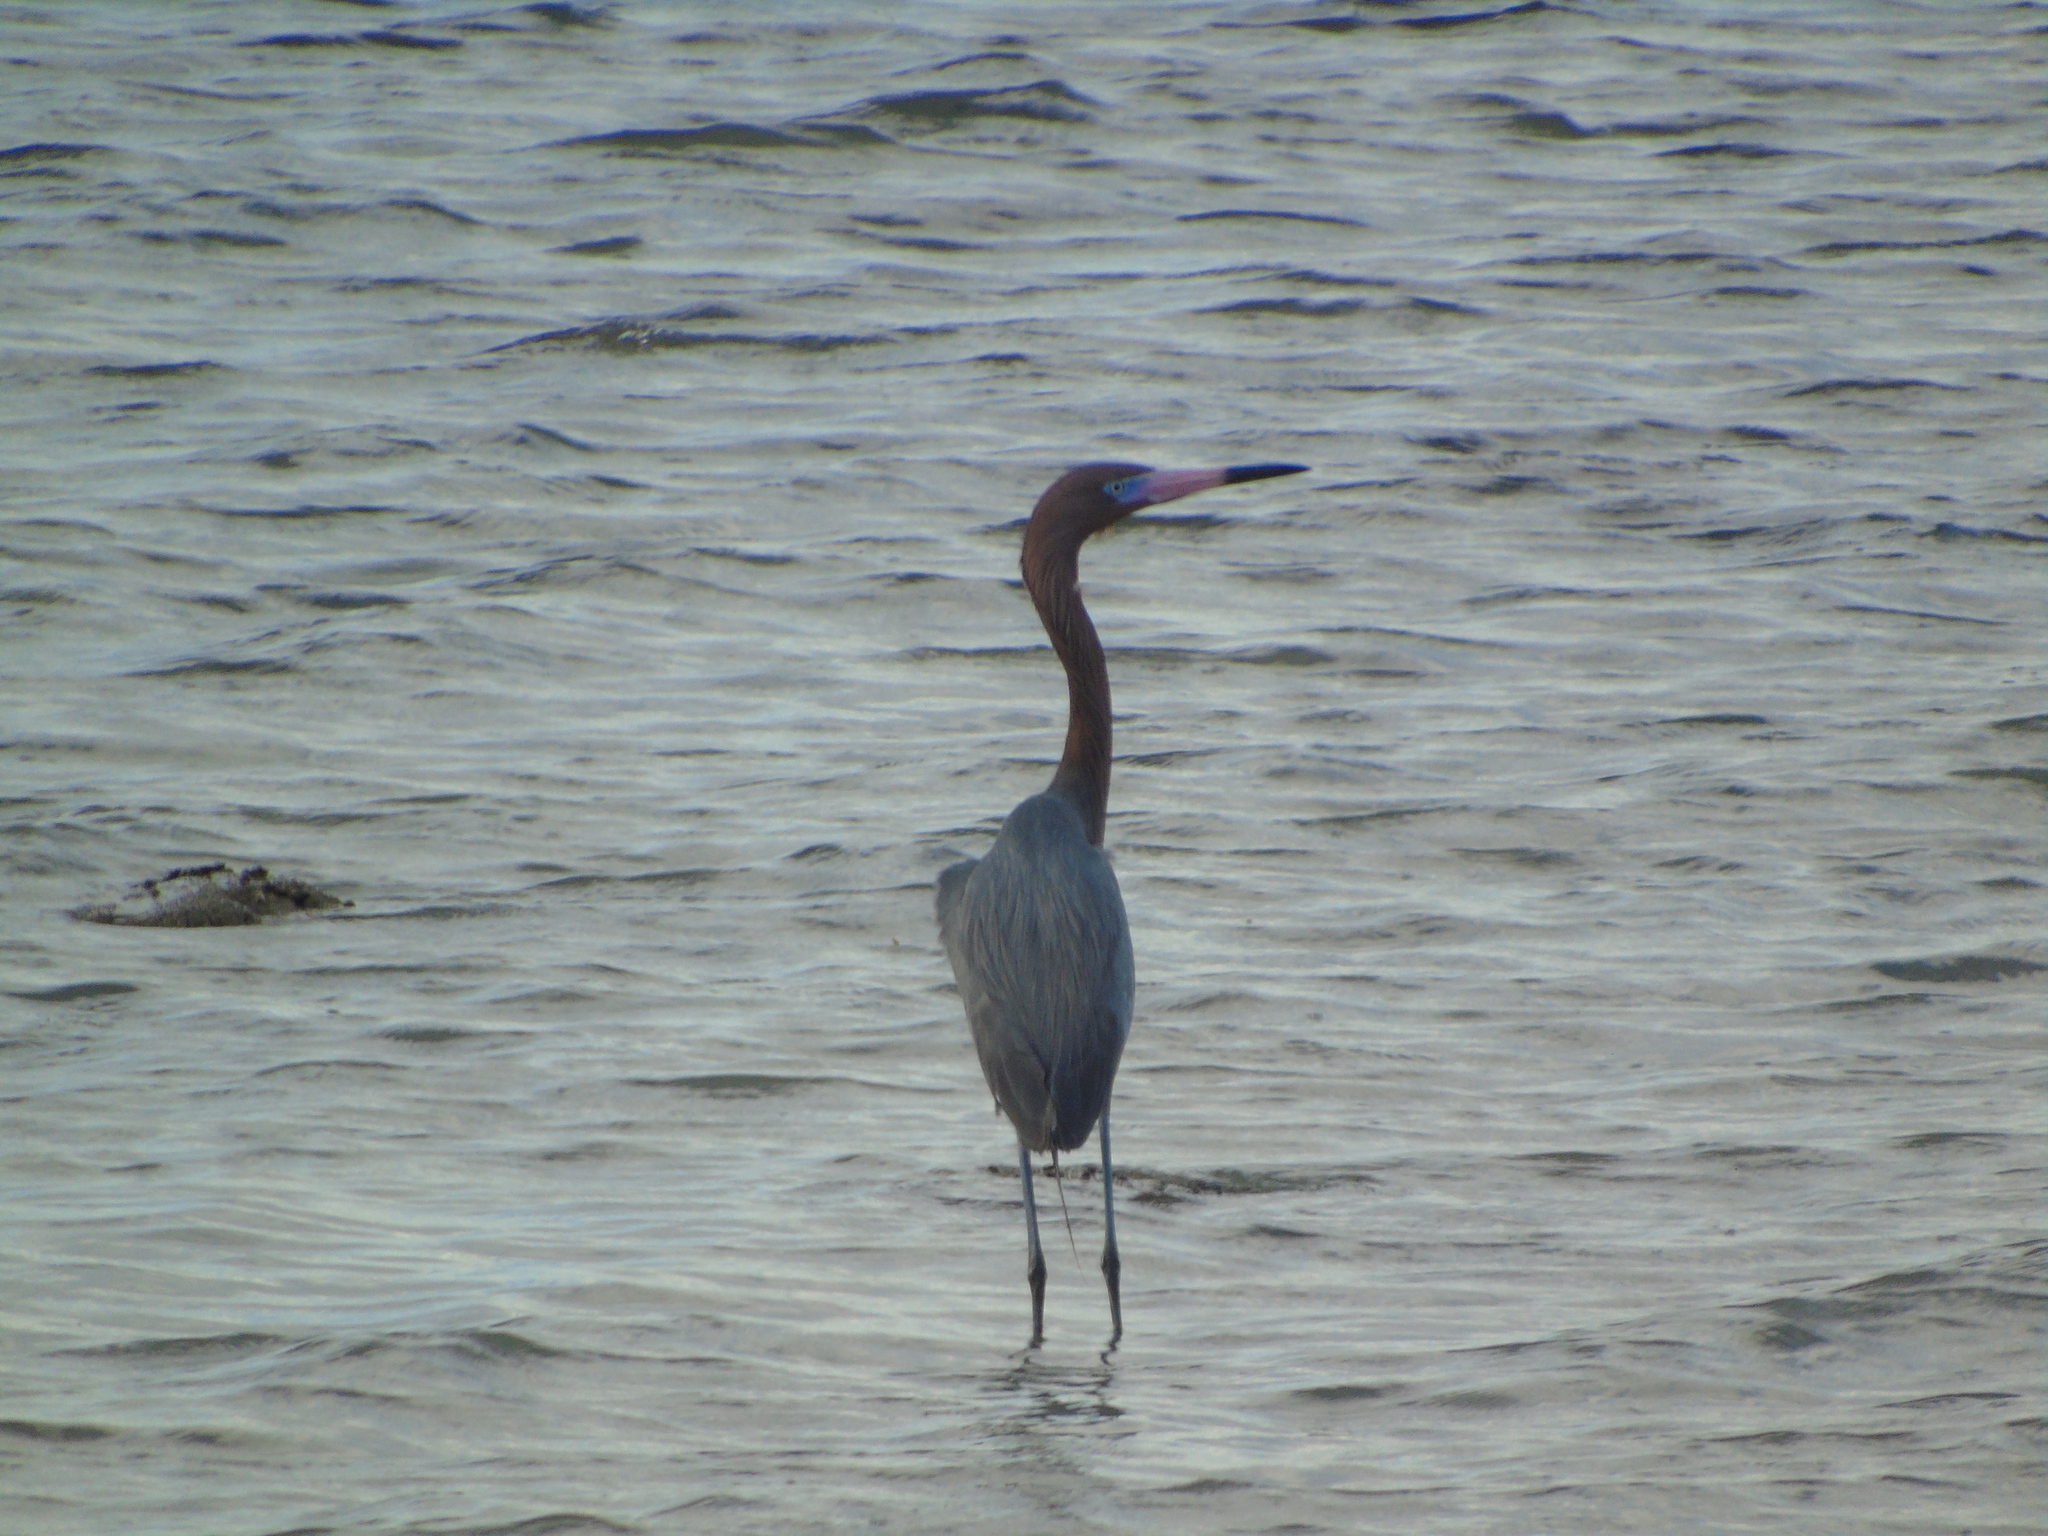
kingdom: Animalia
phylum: Chordata
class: Aves
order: Pelecaniformes
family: Ardeidae
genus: Egretta
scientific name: Egretta rufescens
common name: Reddish egret
